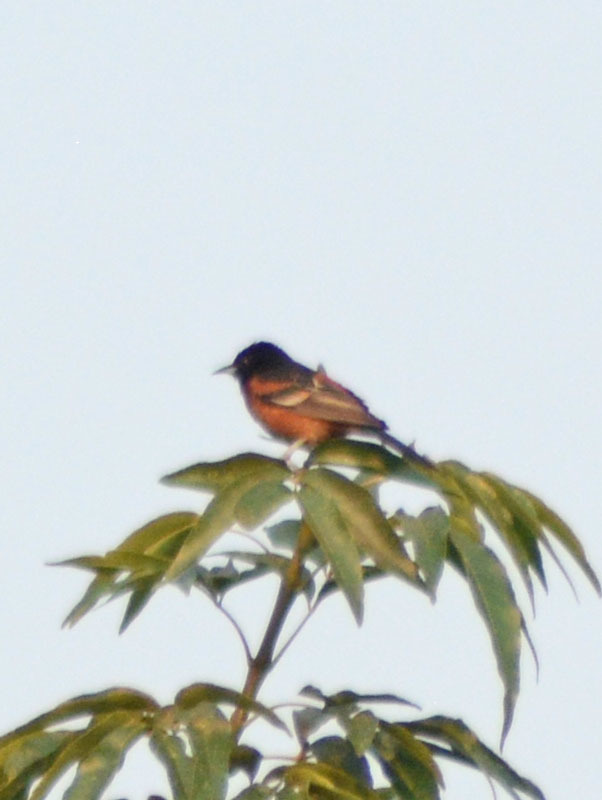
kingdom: Animalia
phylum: Chordata
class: Aves
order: Passeriformes
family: Icteridae
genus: Icterus
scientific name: Icterus spurius
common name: Orchard oriole
